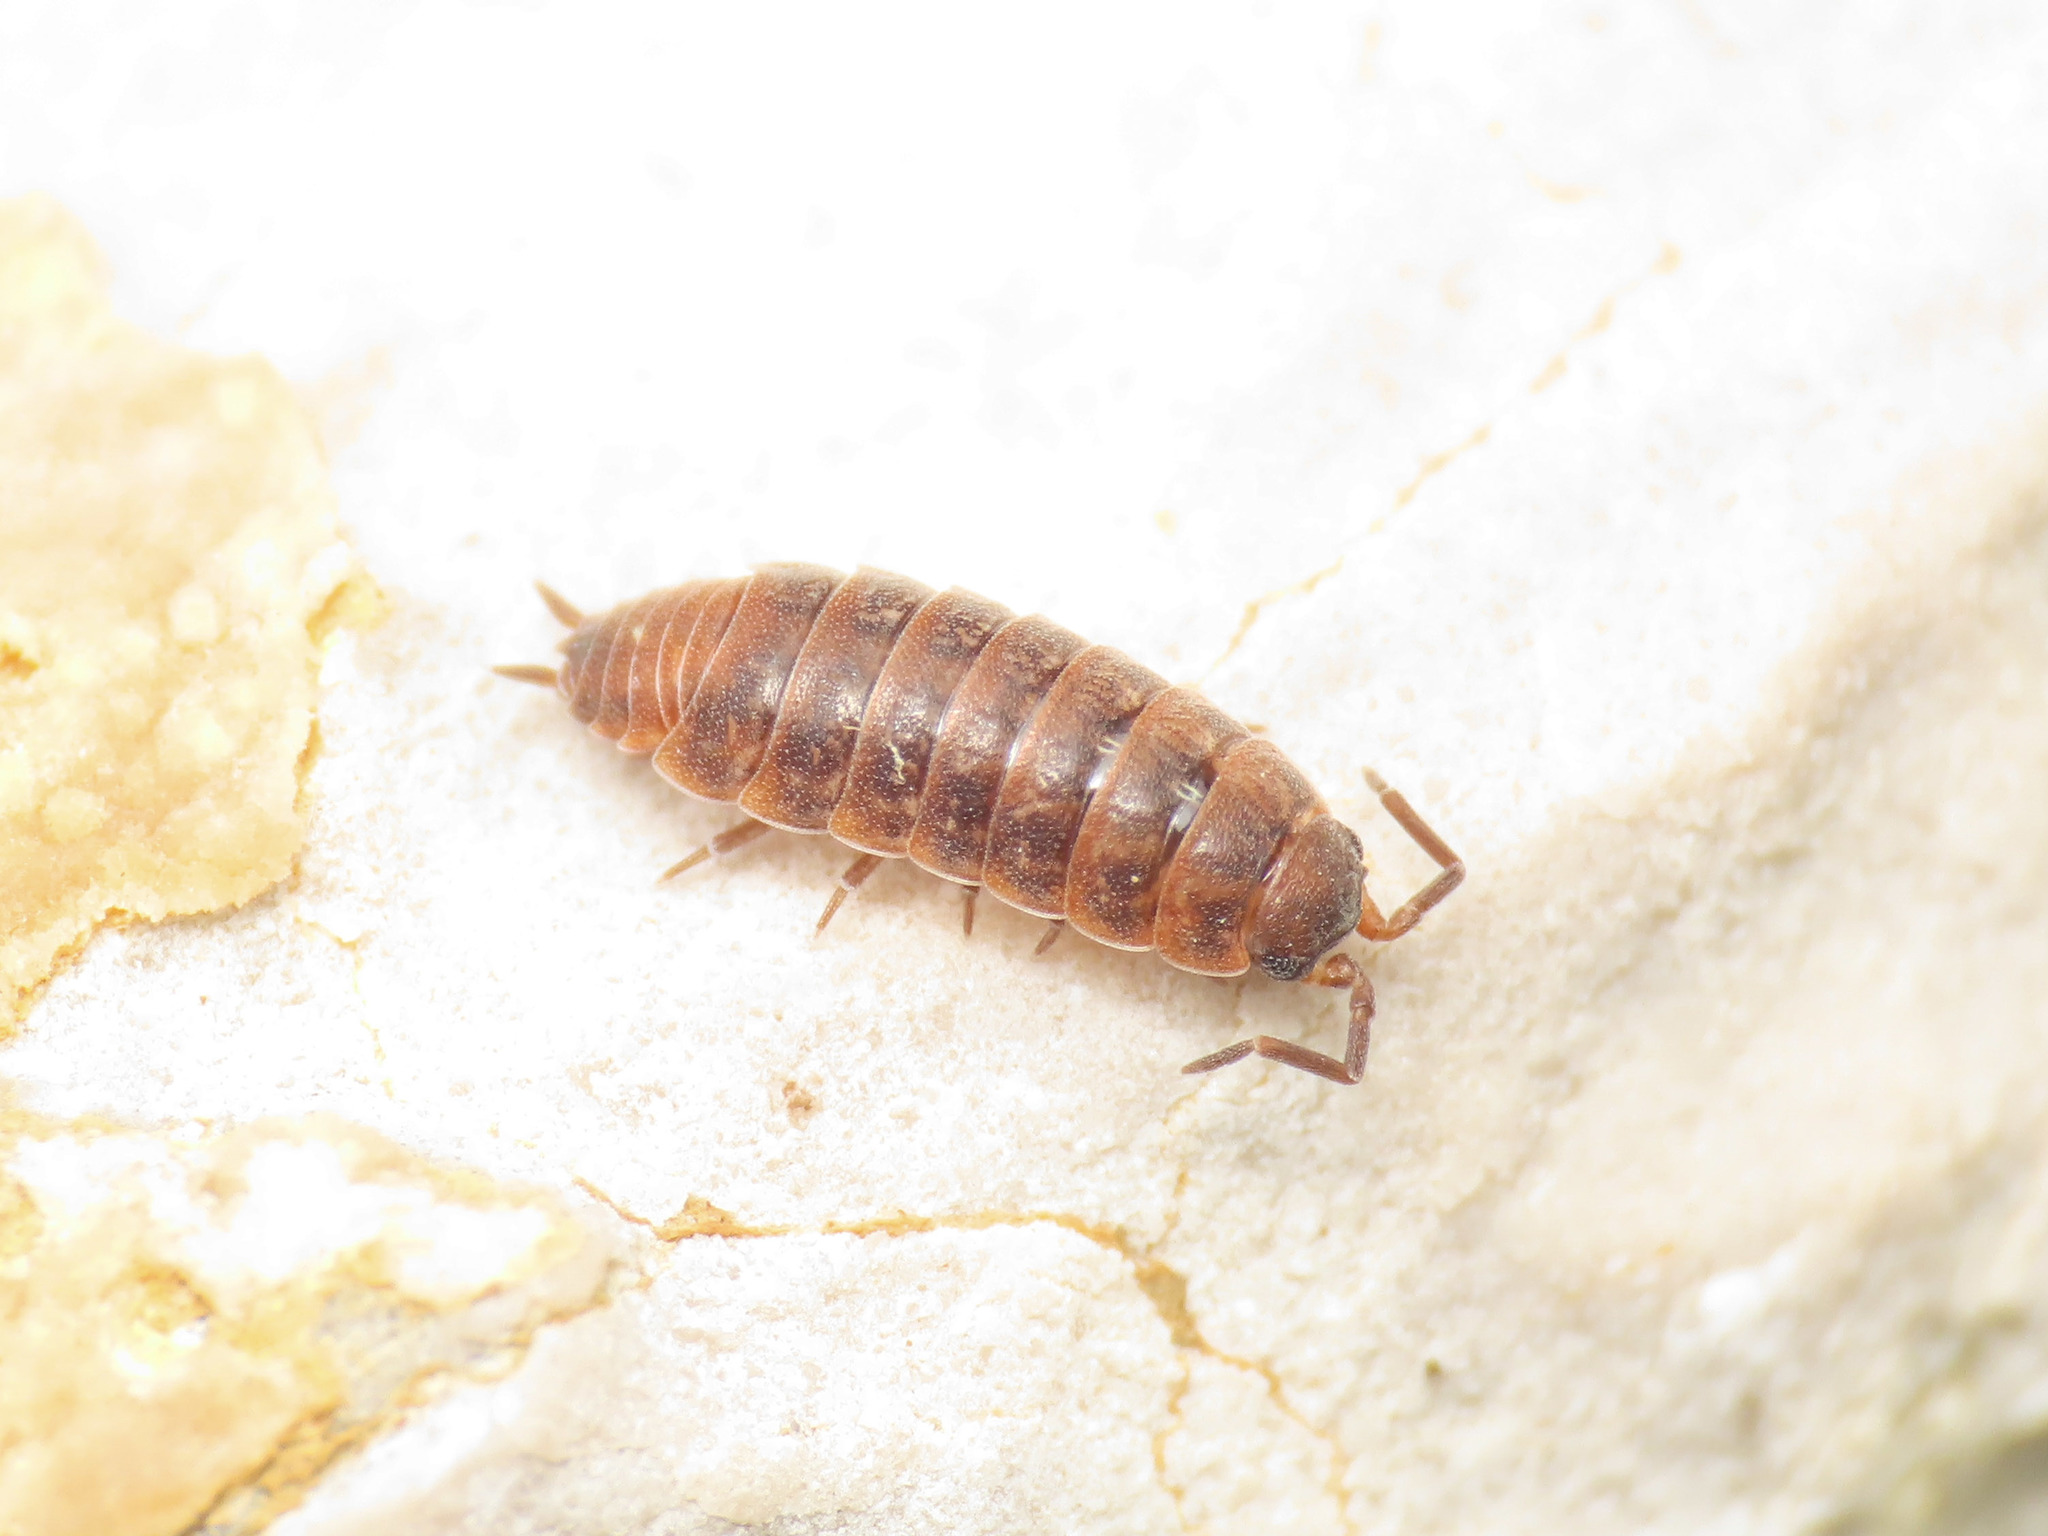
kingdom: Animalia
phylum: Arthropoda
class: Malacostraca
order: Isopoda
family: Porcellionidae
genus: Porcellionides
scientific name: Porcellionides aternanus
